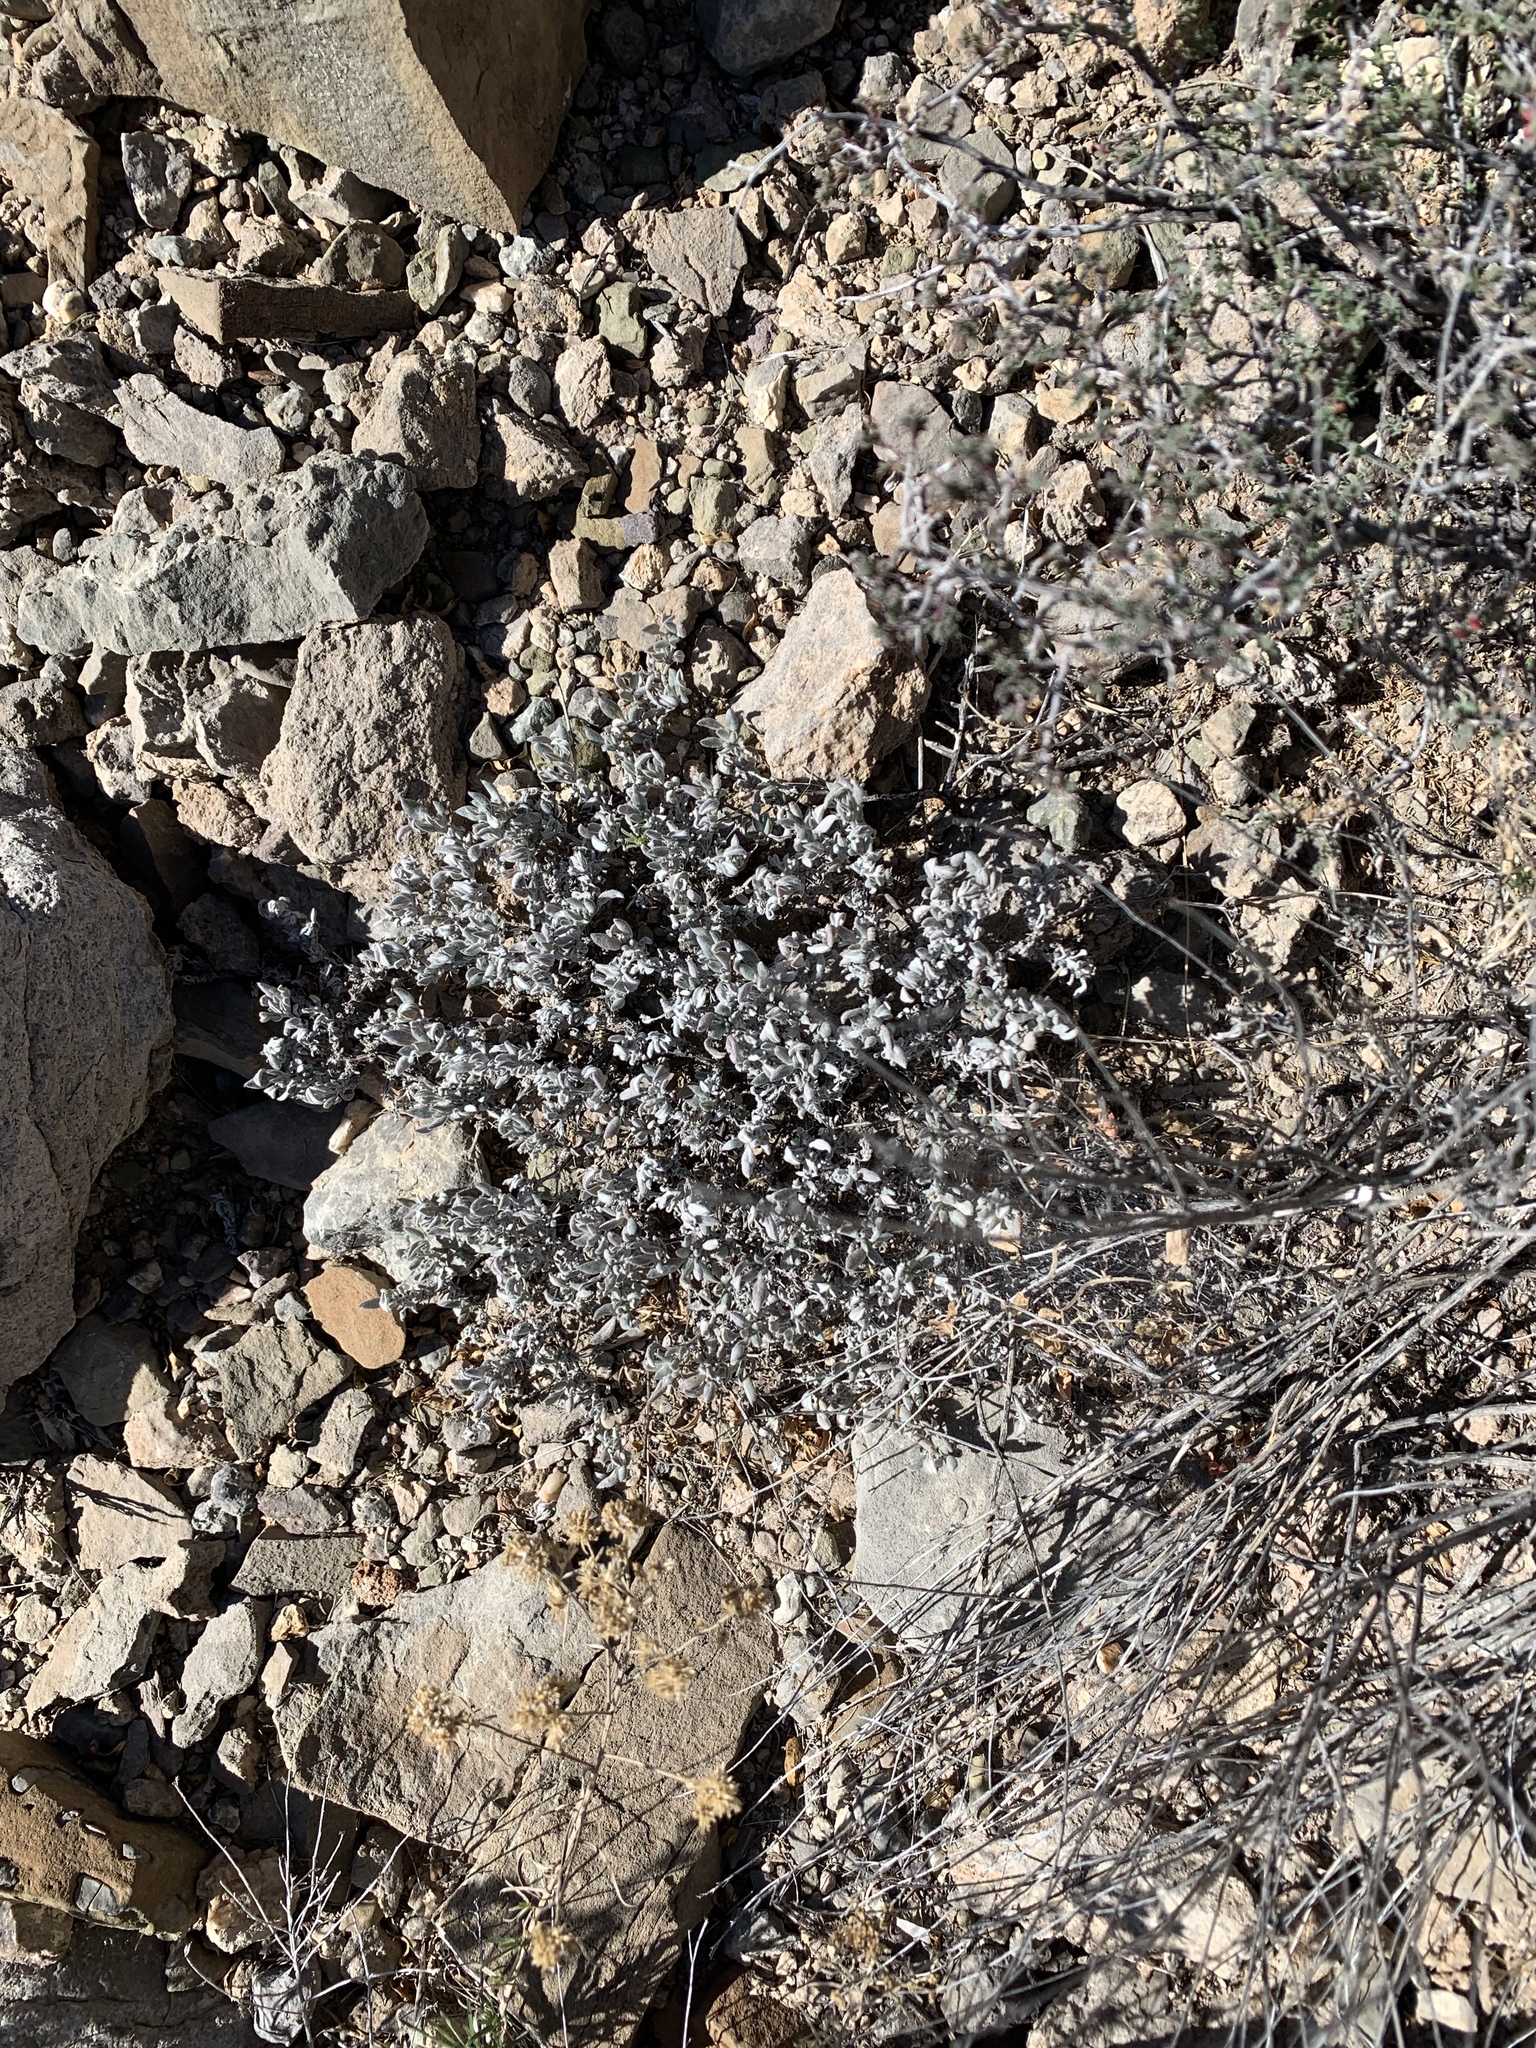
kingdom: Plantae
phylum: Tracheophyta
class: Magnoliopsida
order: Boraginales
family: Ehretiaceae
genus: Tiquilia
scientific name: Tiquilia canescens
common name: Hairy tiquilia
